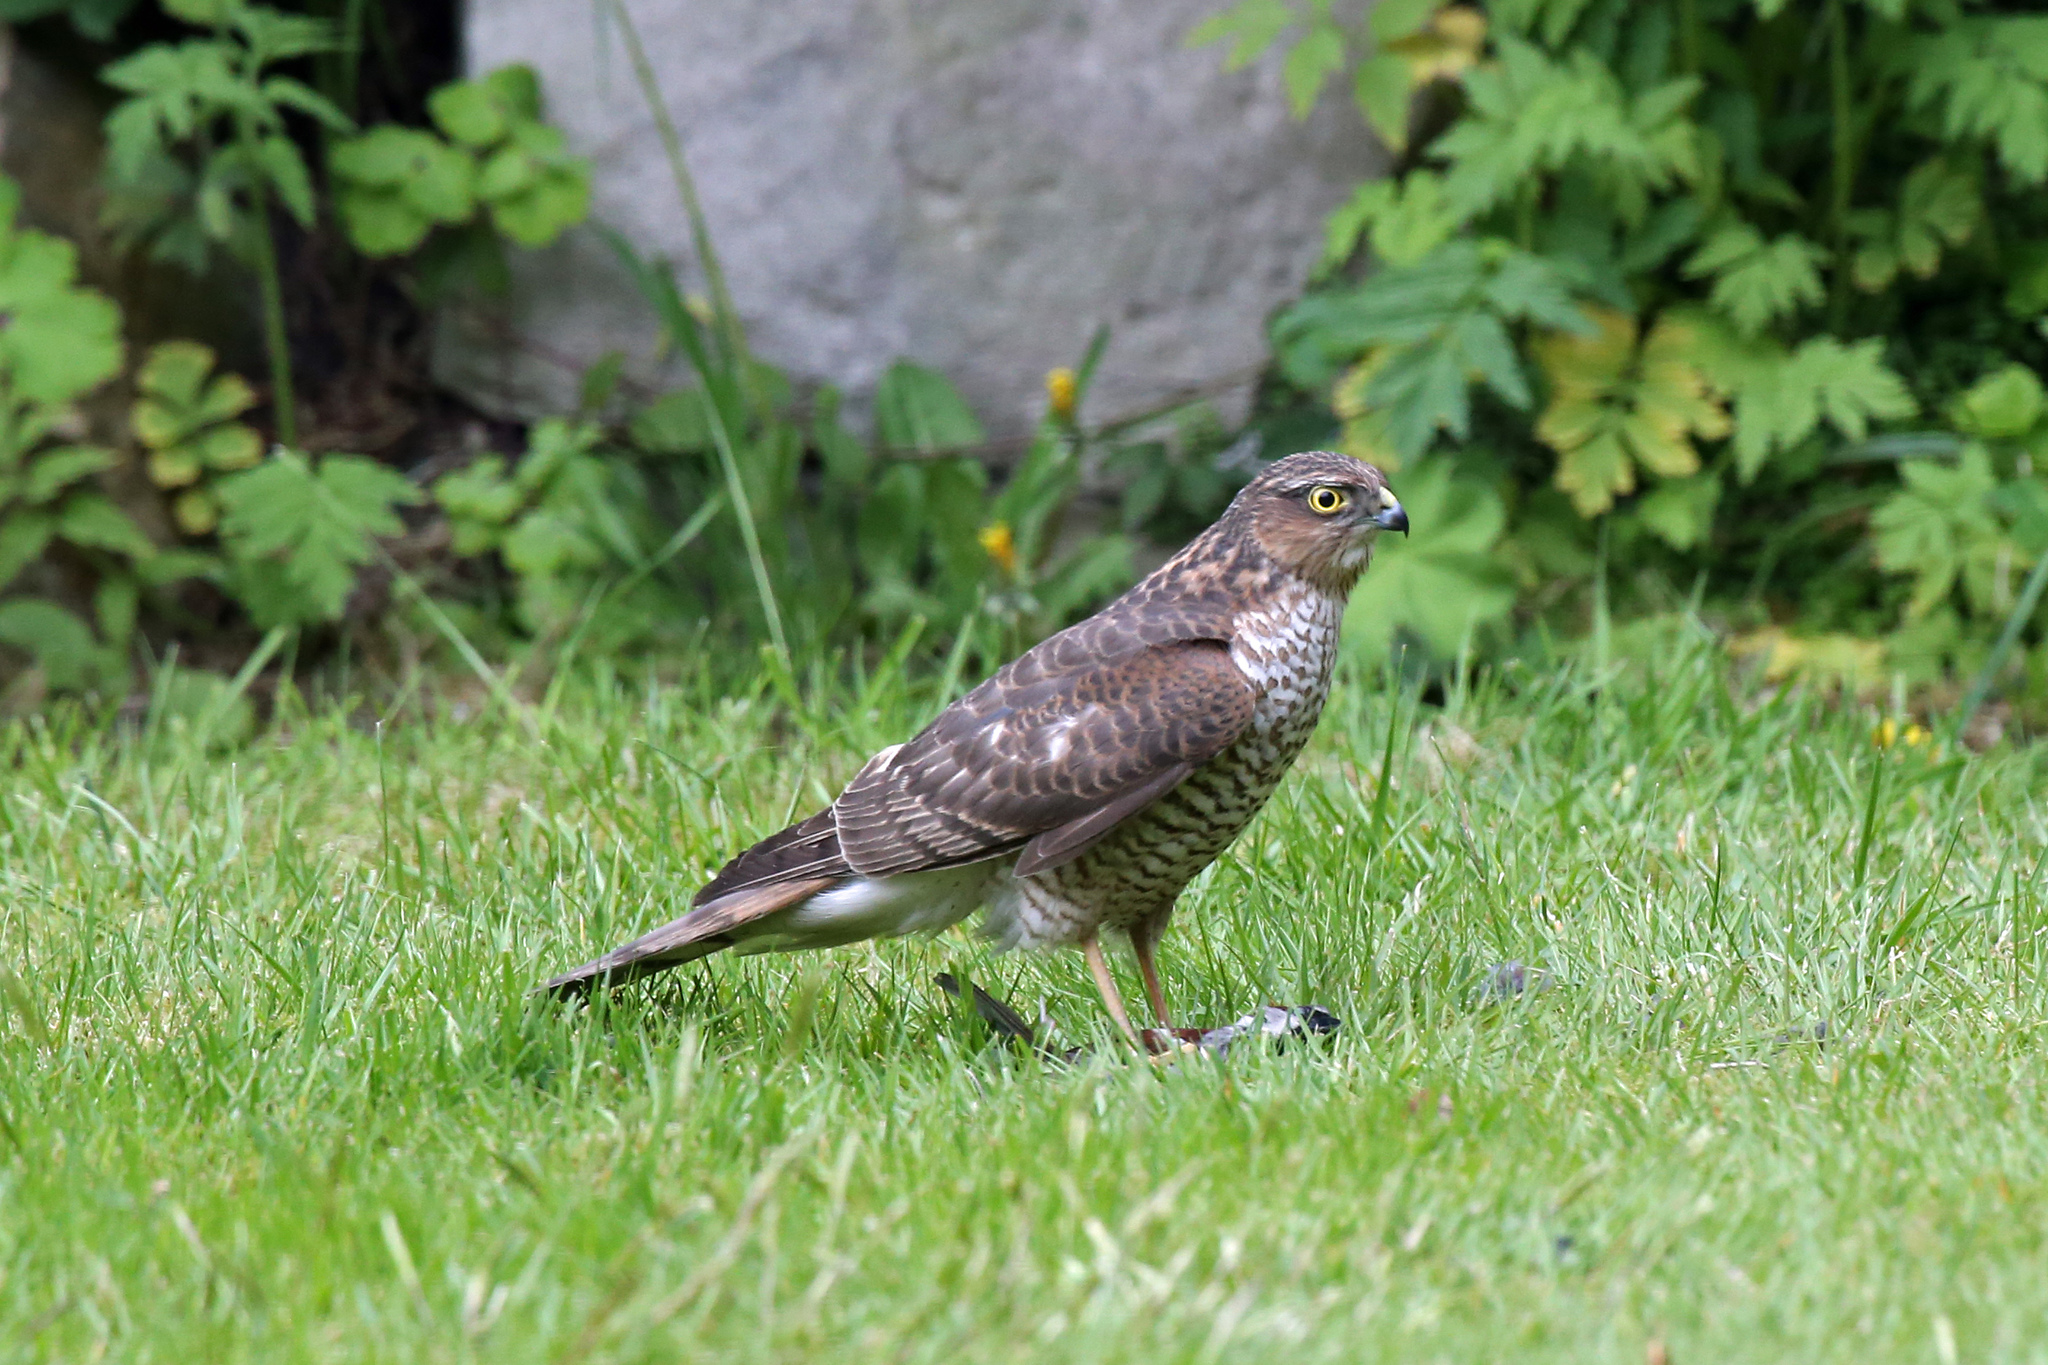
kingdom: Animalia
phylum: Chordata
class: Aves
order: Accipitriformes
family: Accipitridae
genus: Accipiter
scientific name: Accipiter nisus
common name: Eurasian sparrowhawk
